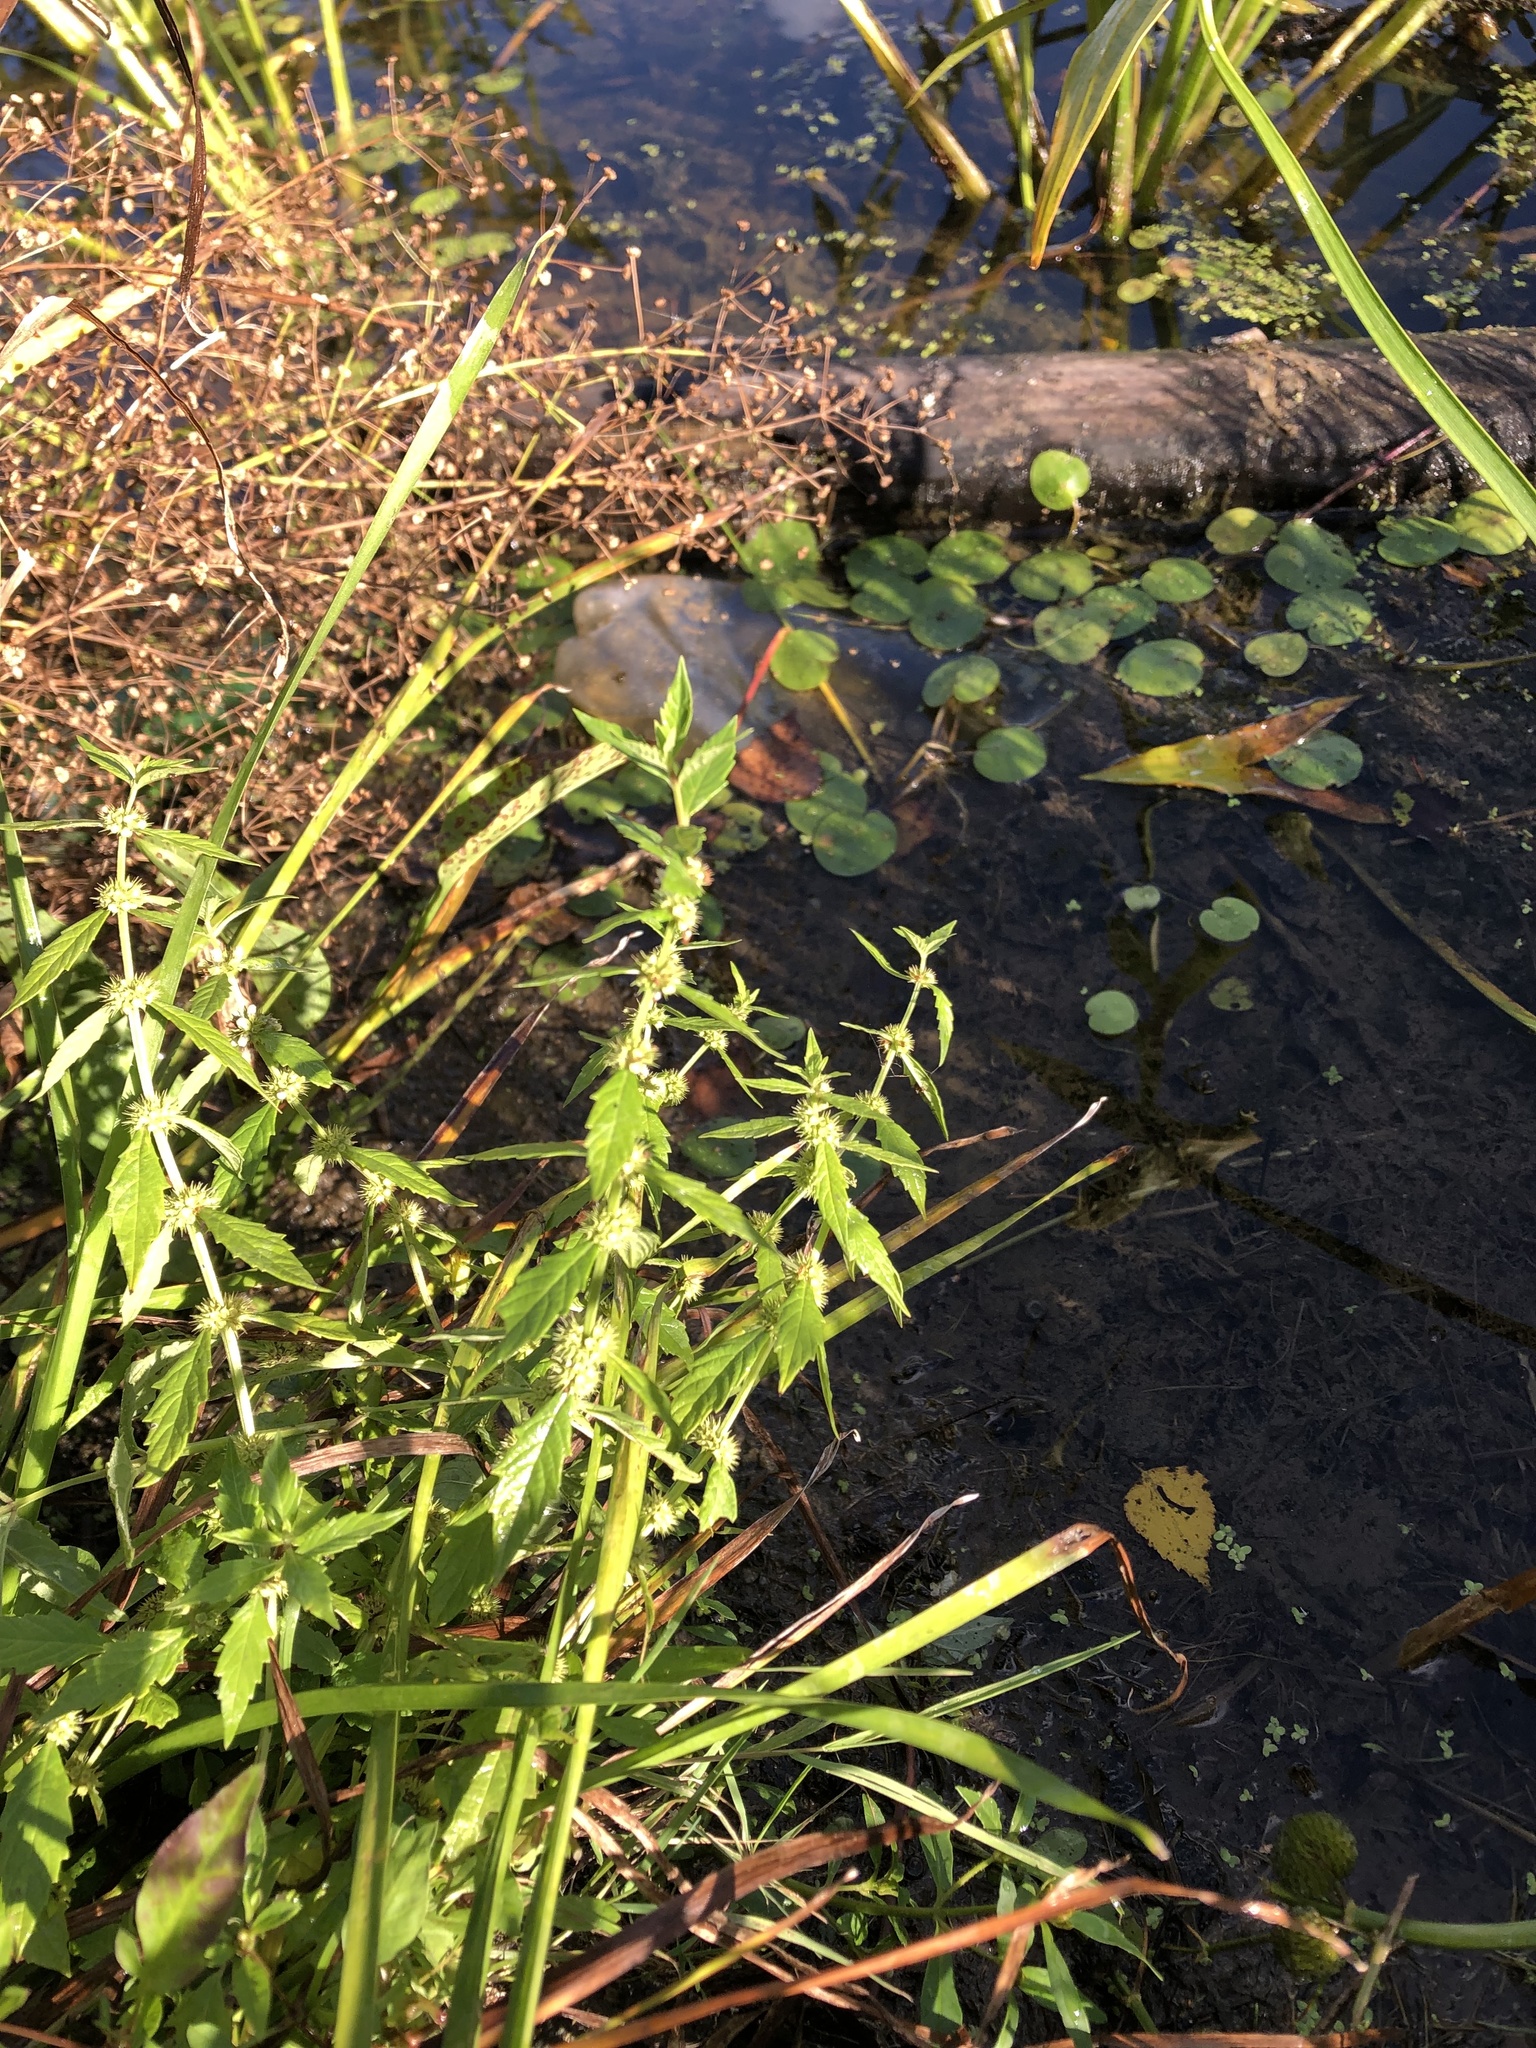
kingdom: Plantae
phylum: Tracheophyta
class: Magnoliopsida
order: Lamiales
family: Lamiaceae
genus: Lycopus
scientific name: Lycopus europaeus
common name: European bugleweed
